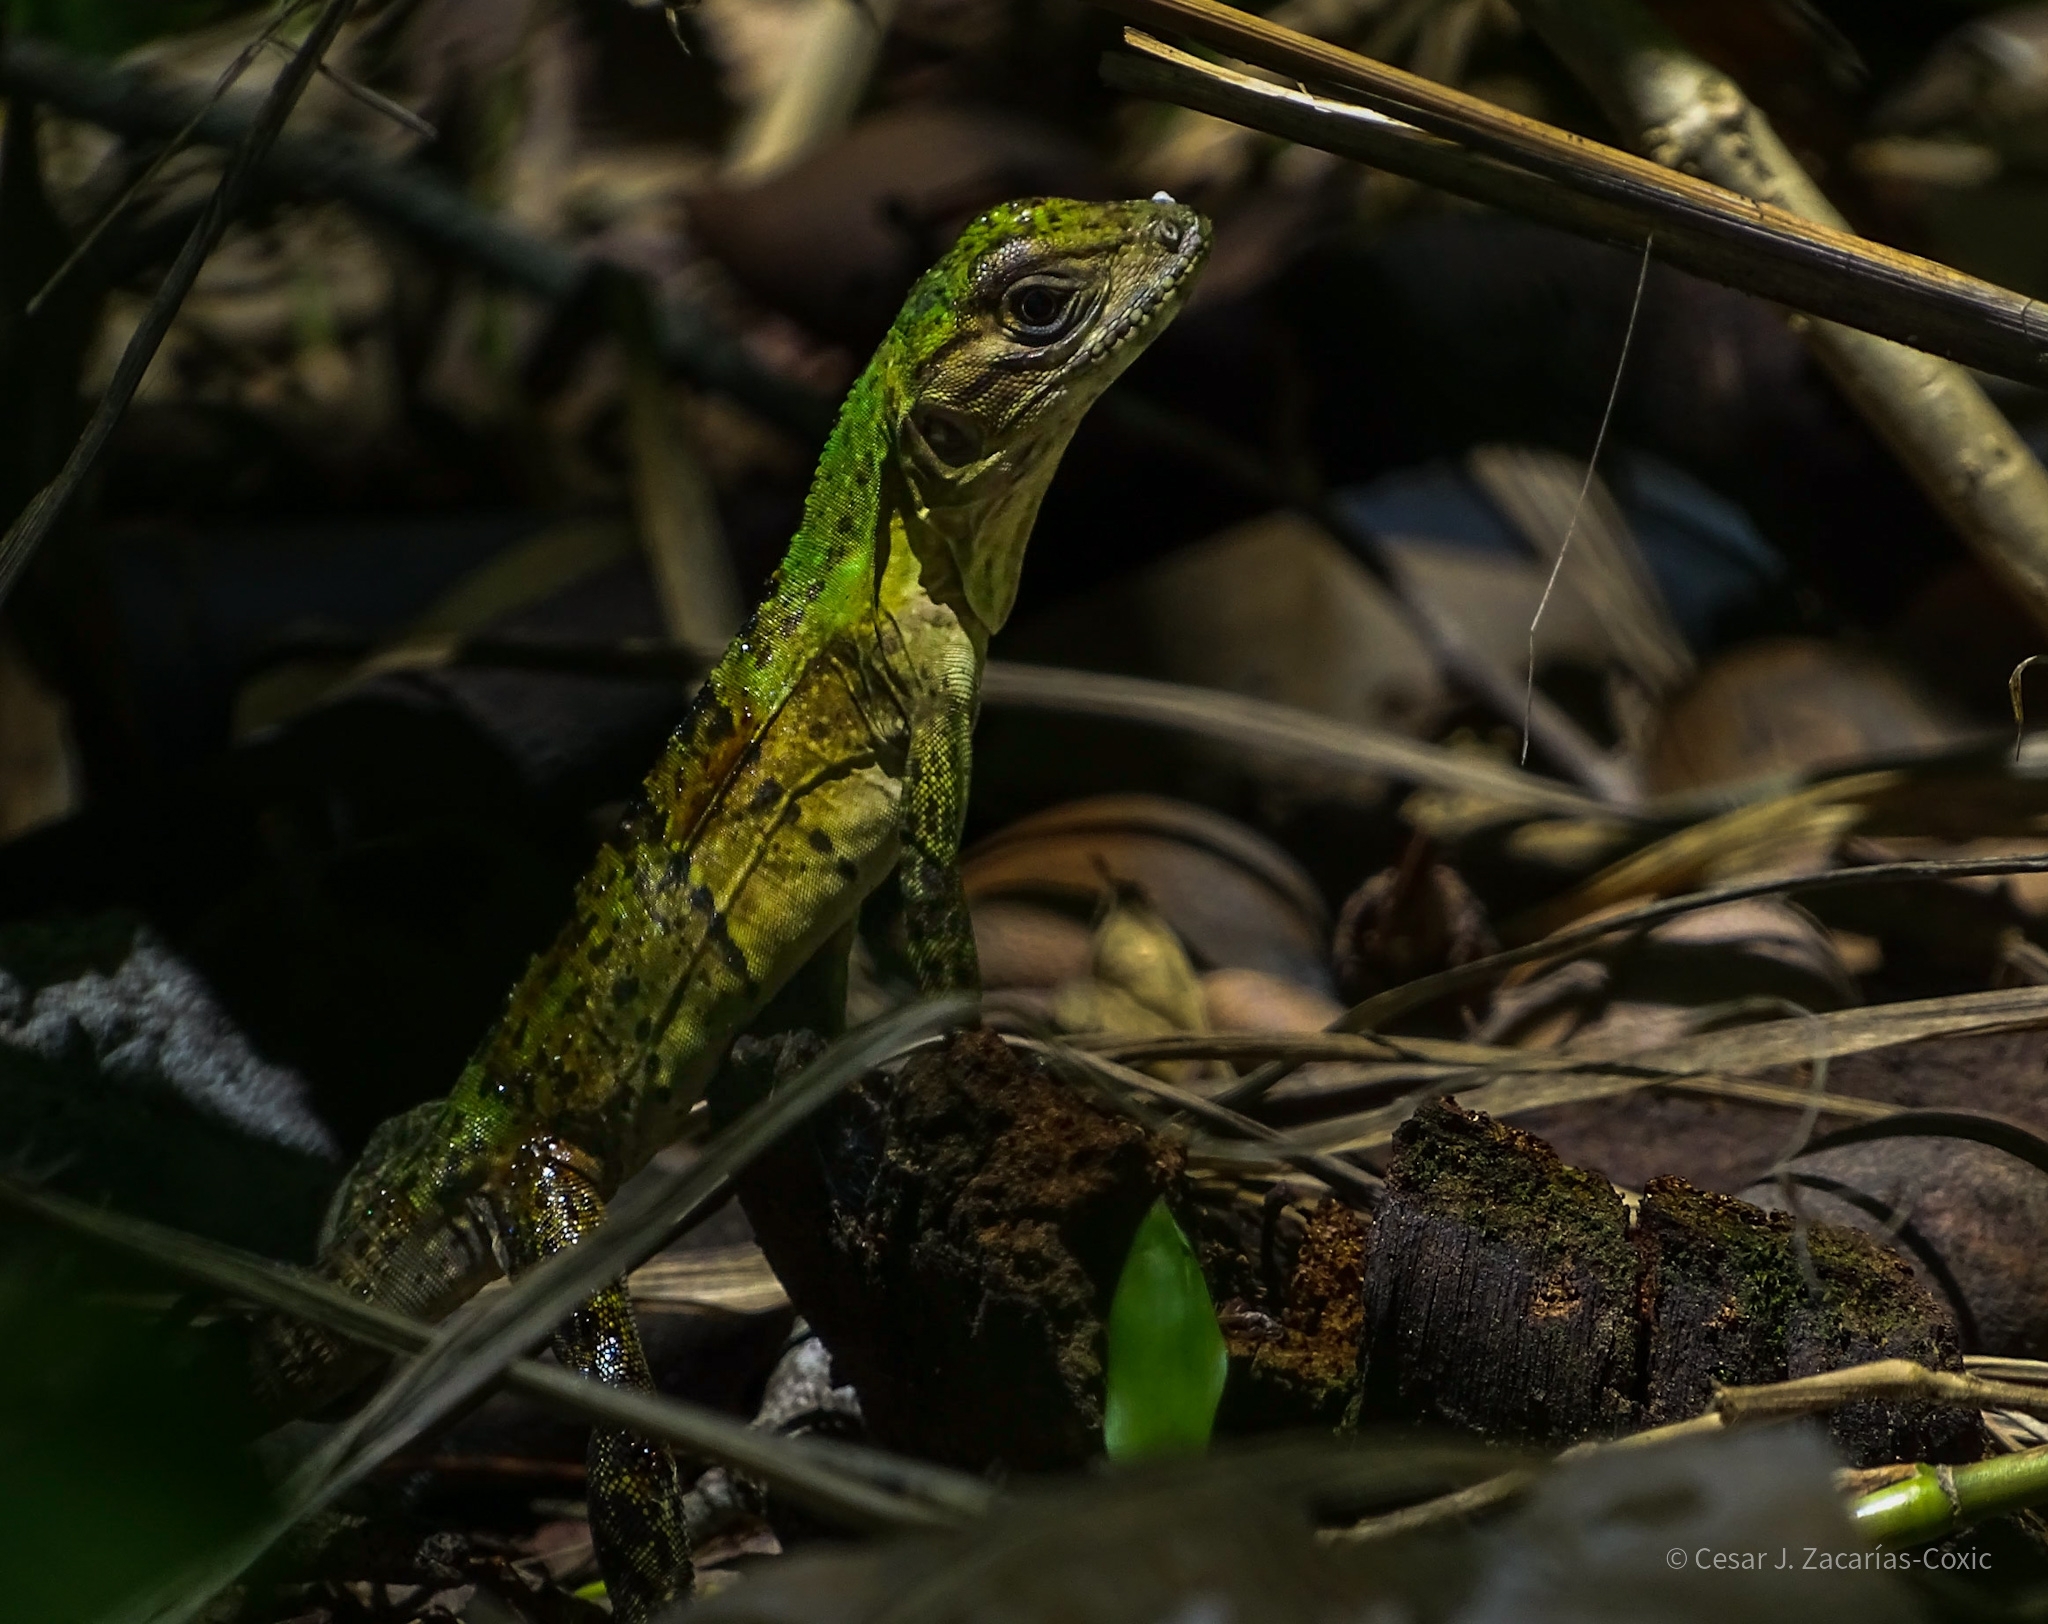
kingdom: Animalia
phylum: Chordata
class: Squamata
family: Iguanidae
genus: Ctenosaura
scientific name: Ctenosaura similis
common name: Black spiny-tailed iguana
